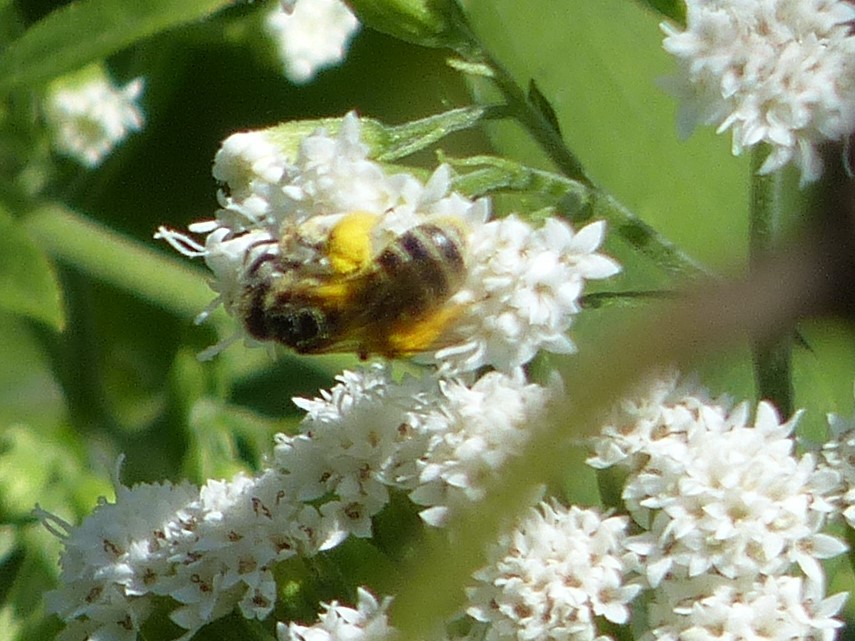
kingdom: Animalia
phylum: Arthropoda
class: Insecta
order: Hymenoptera
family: Halictidae
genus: Halictus
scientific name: Halictus ligatus
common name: Ligated furrow bee
